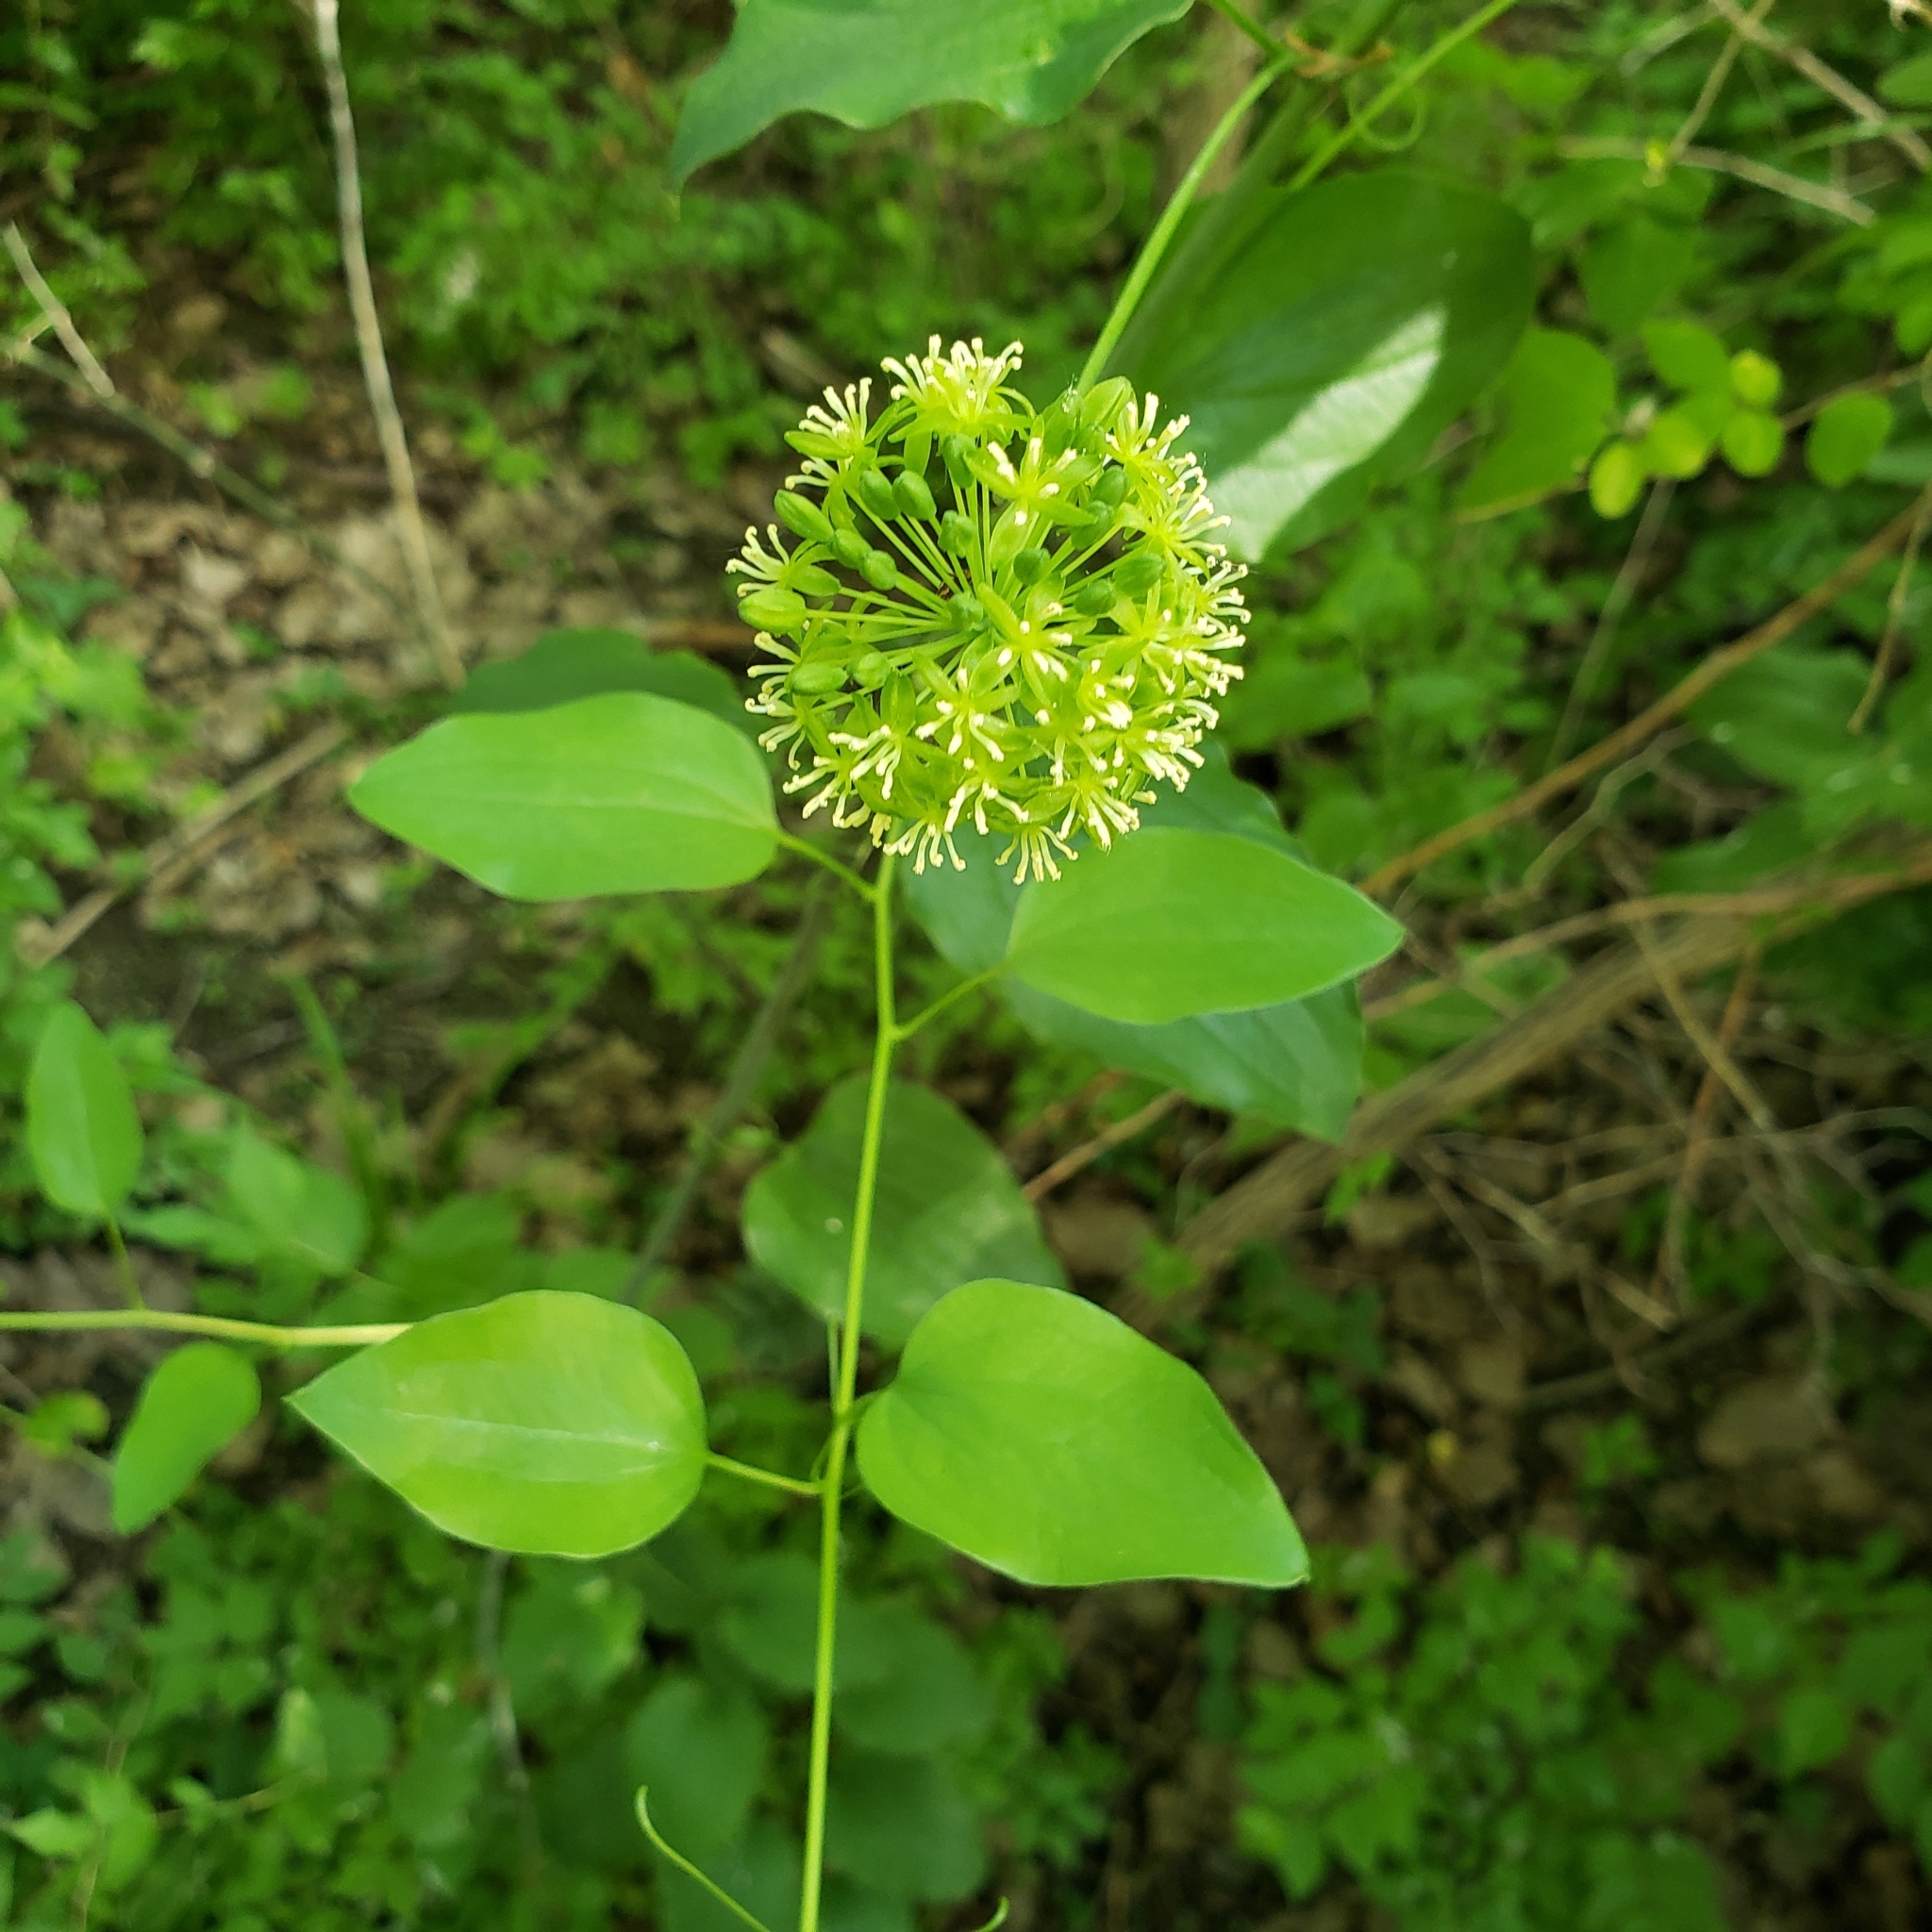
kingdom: Plantae
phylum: Tracheophyta
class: Liliopsida
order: Liliales
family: Smilacaceae
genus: Smilax
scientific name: Smilax lasioneura
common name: Blue ridge carrionflower
